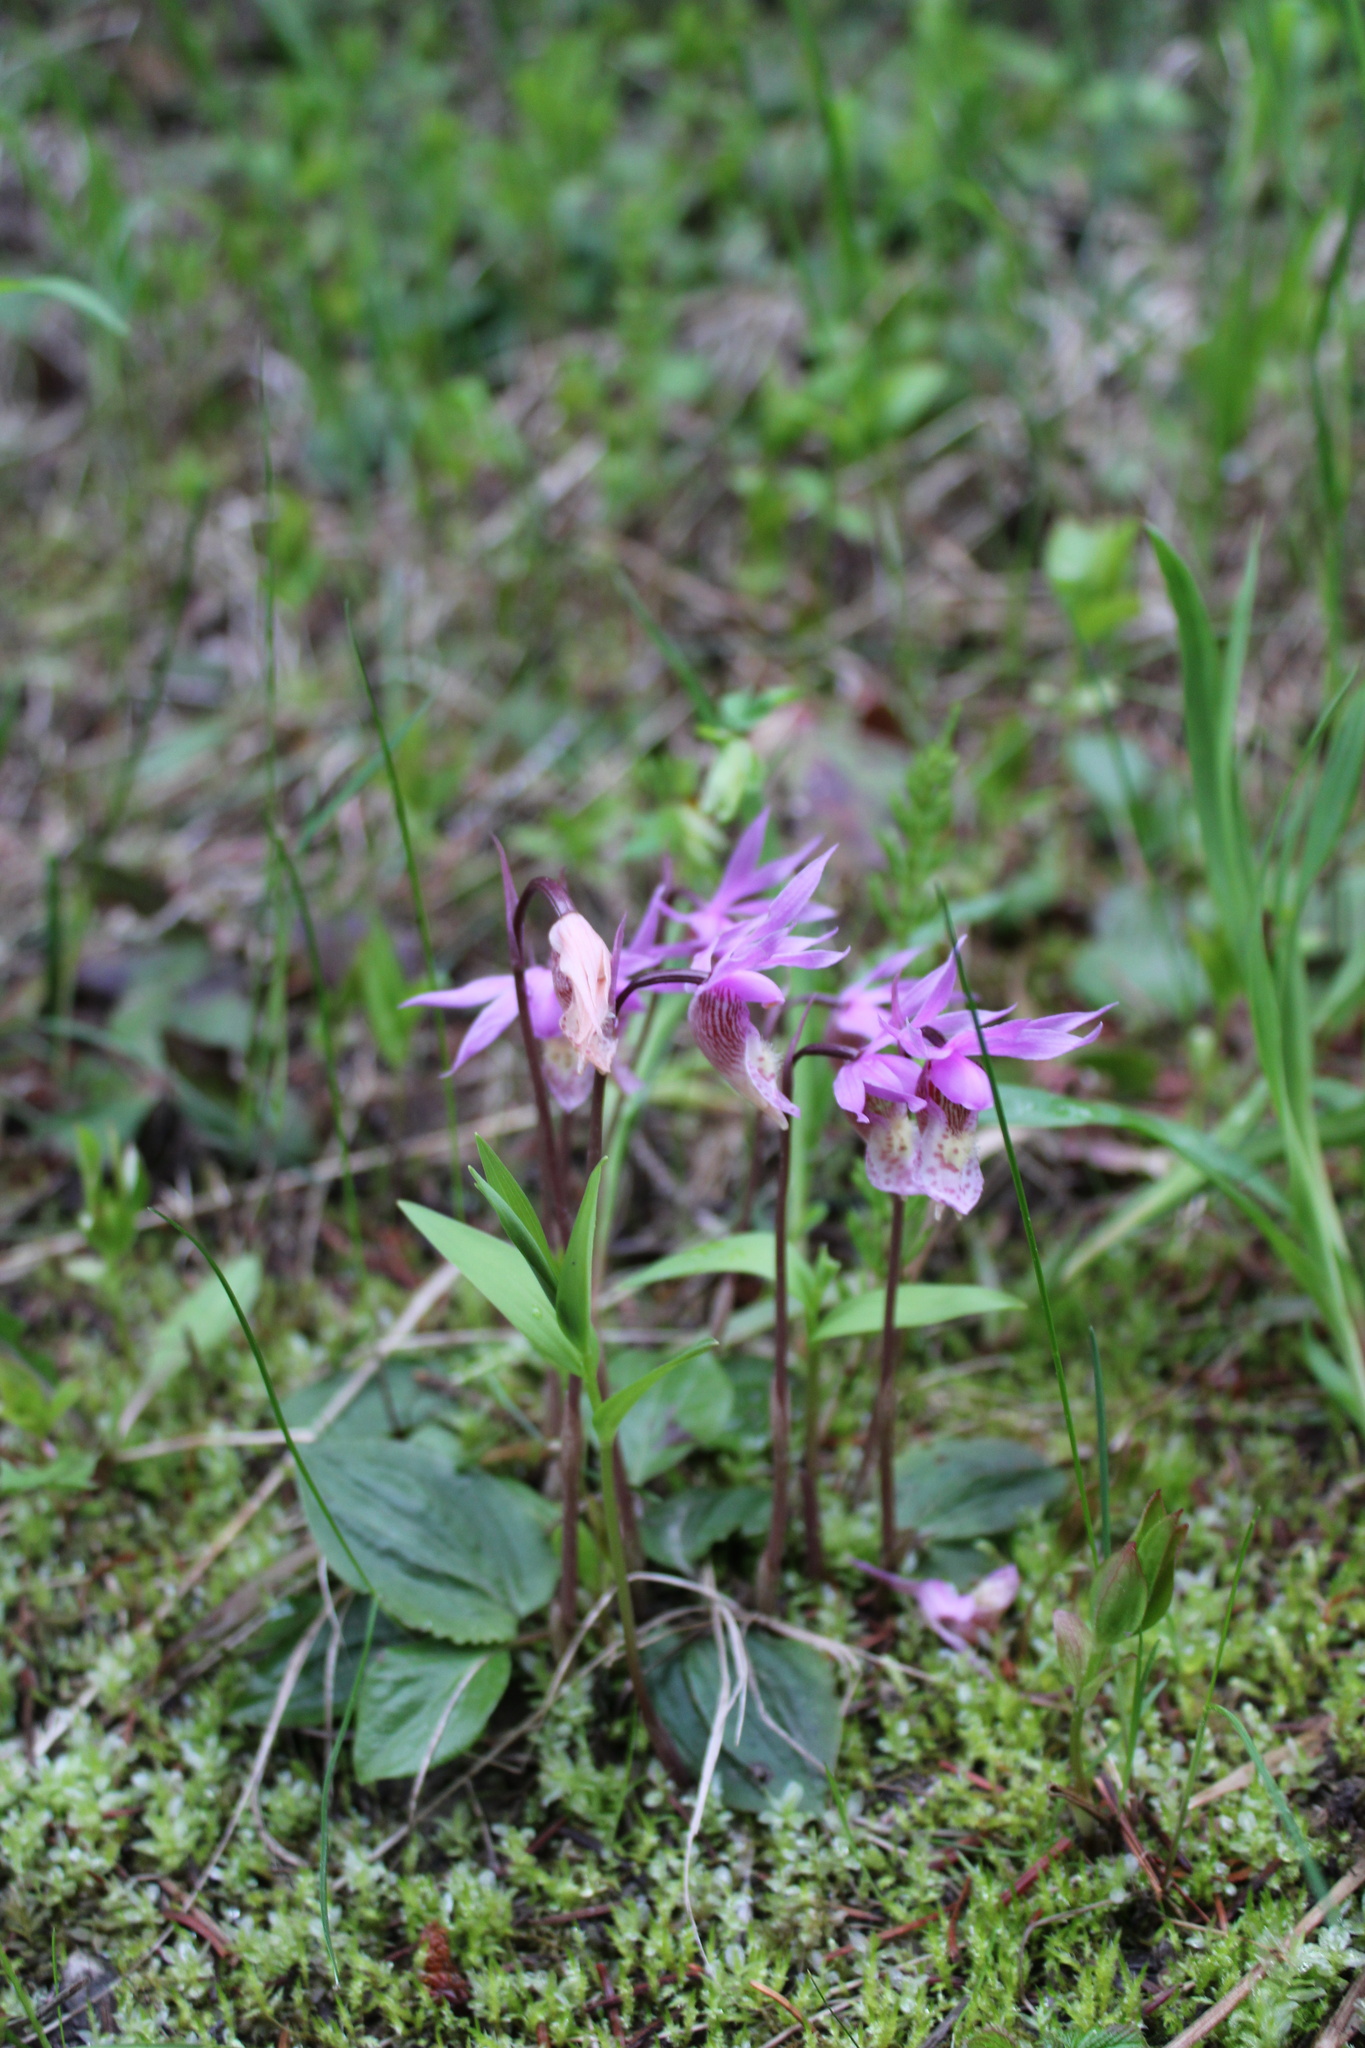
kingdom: Plantae
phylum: Tracheophyta
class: Liliopsida
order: Asparagales
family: Orchidaceae
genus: Calypso
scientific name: Calypso bulbosa
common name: Calypso
